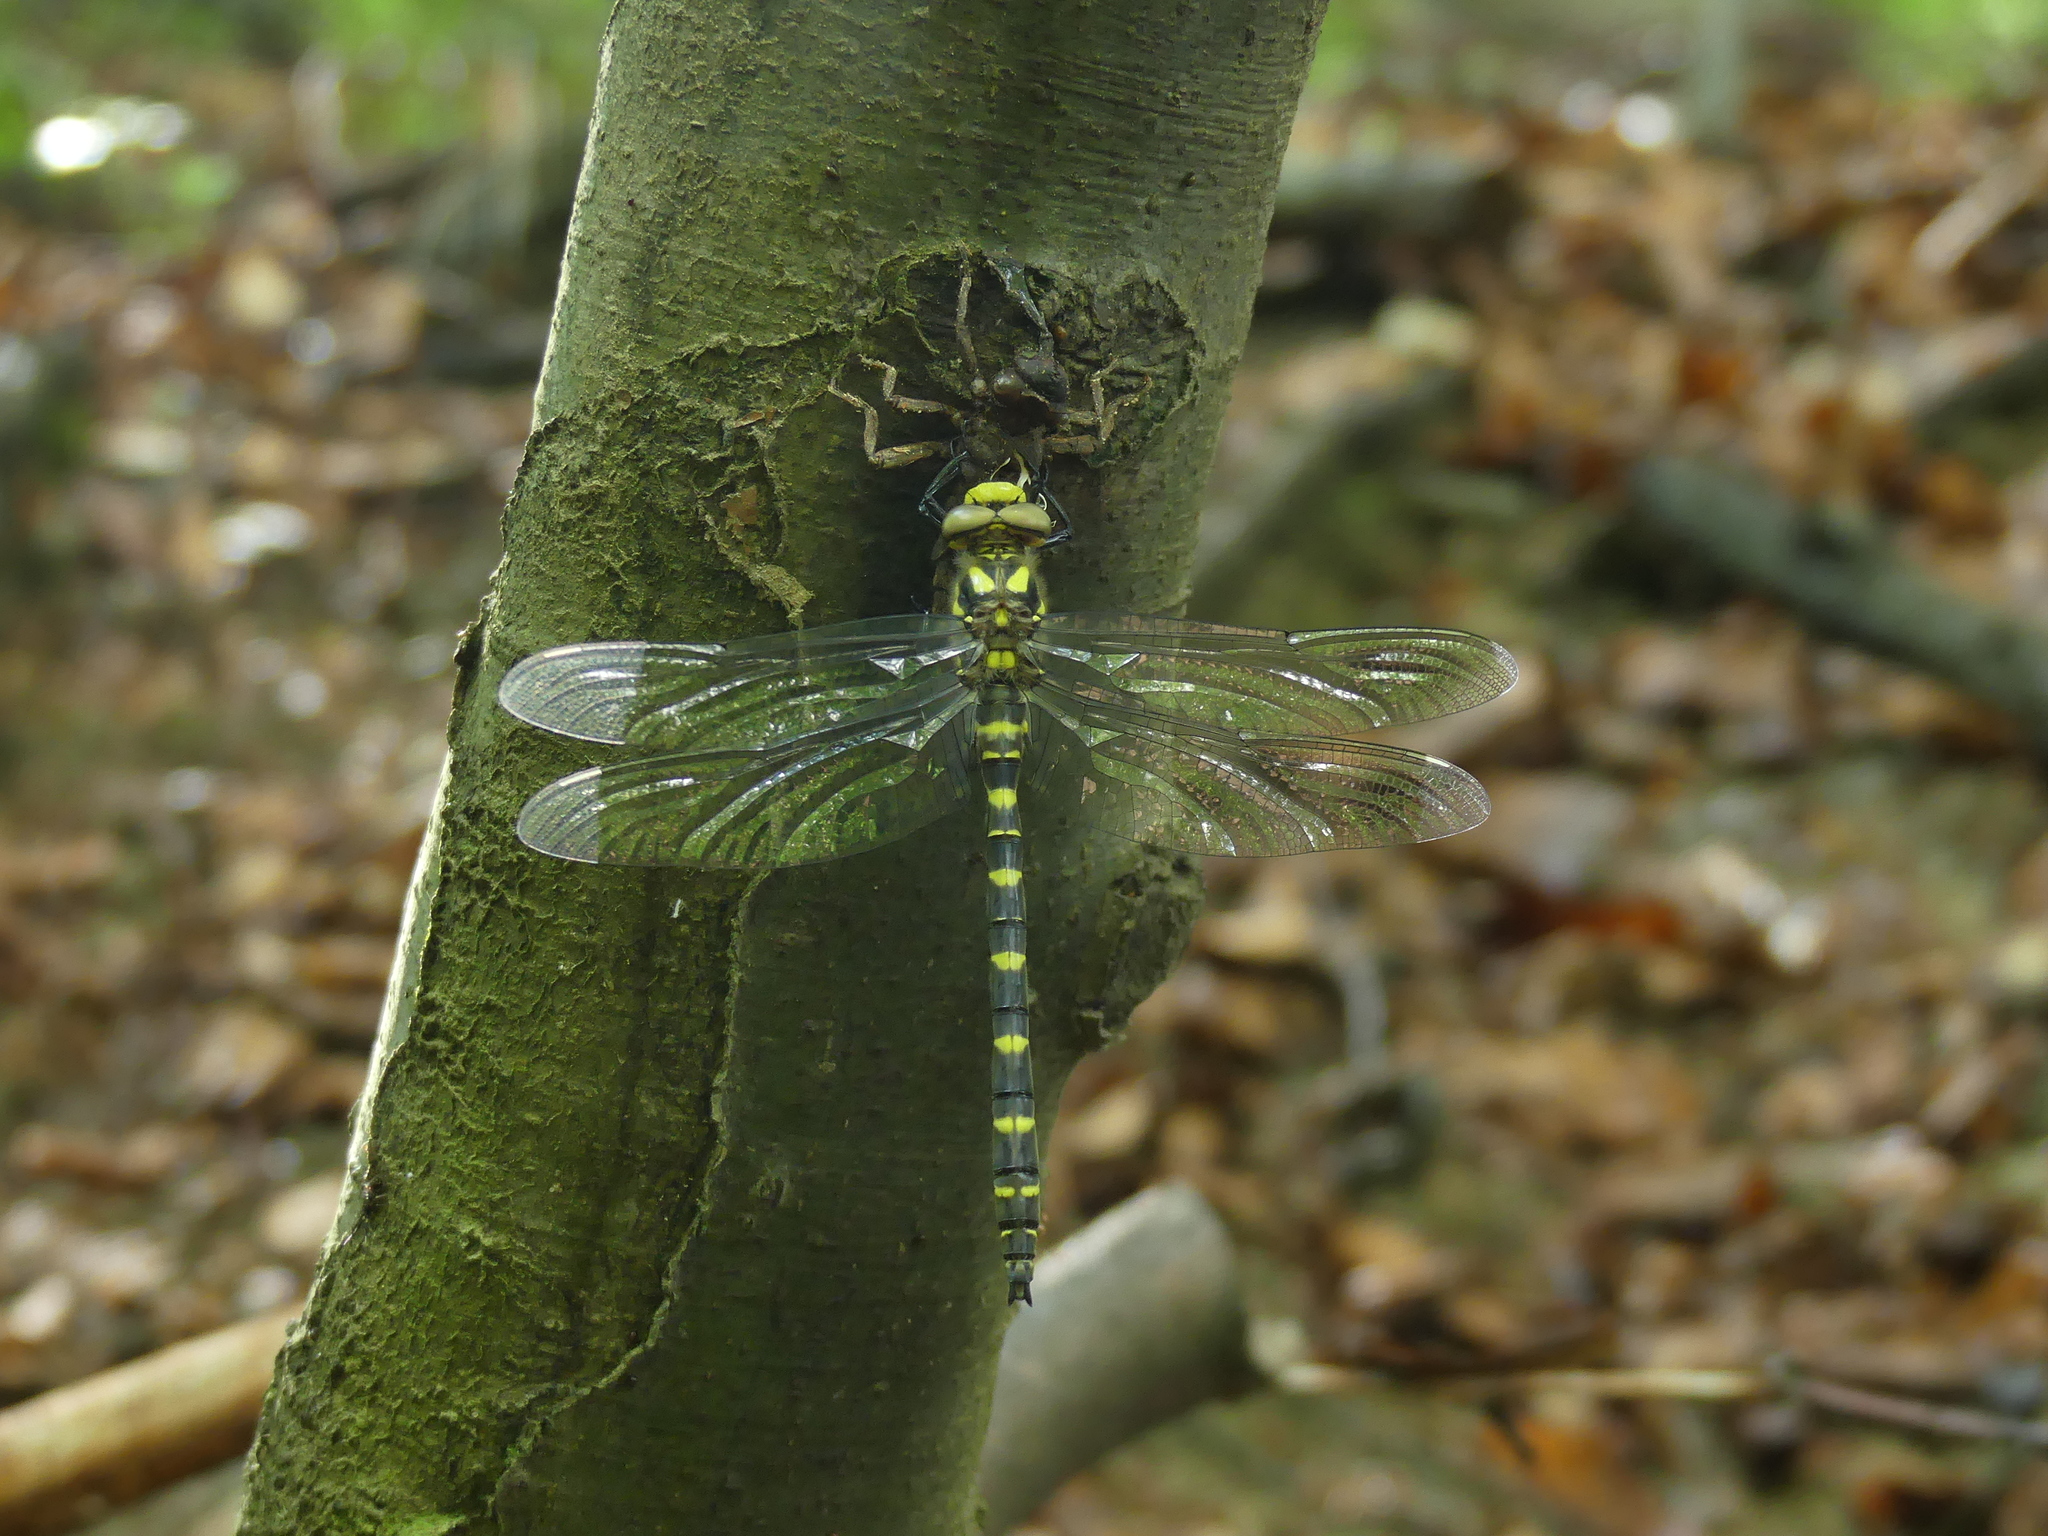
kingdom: Animalia
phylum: Arthropoda
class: Insecta
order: Odonata
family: Cordulegastridae
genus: Cordulegaster
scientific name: Cordulegaster bidentata
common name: Sombre goldenring
